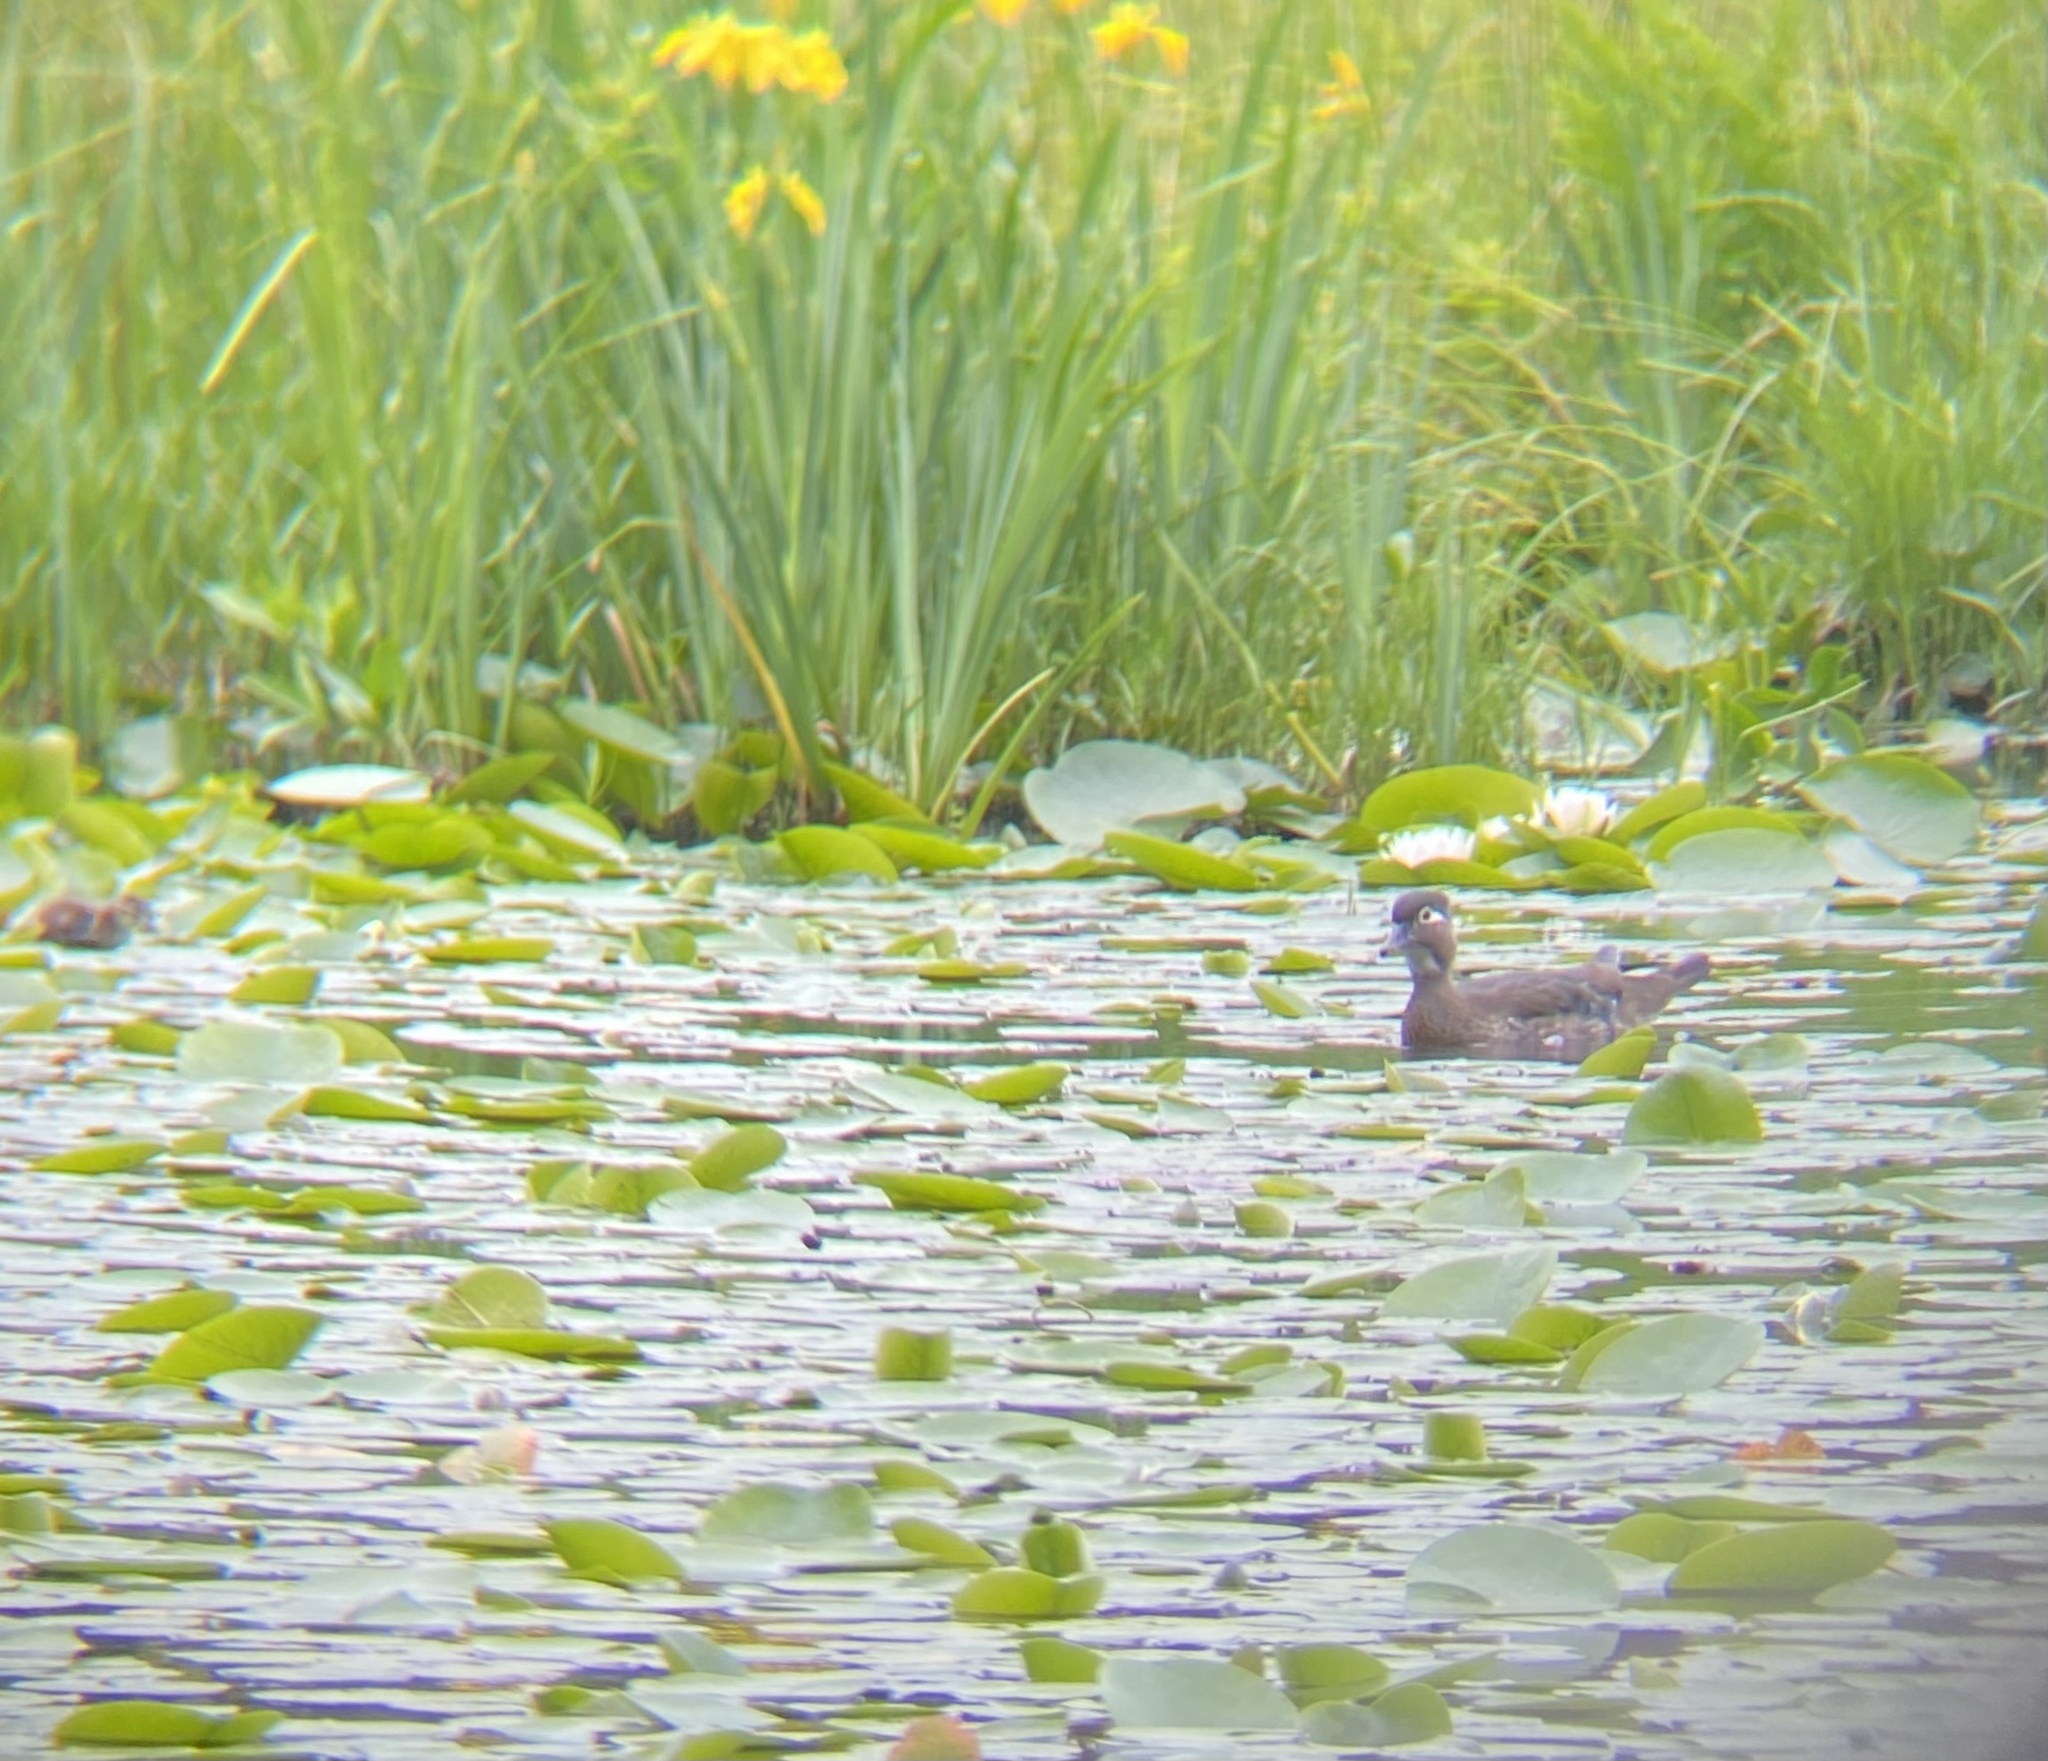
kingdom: Animalia
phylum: Chordata
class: Aves
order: Anseriformes
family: Anatidae
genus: Aix
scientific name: Aix sponsa
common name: Wood duck
